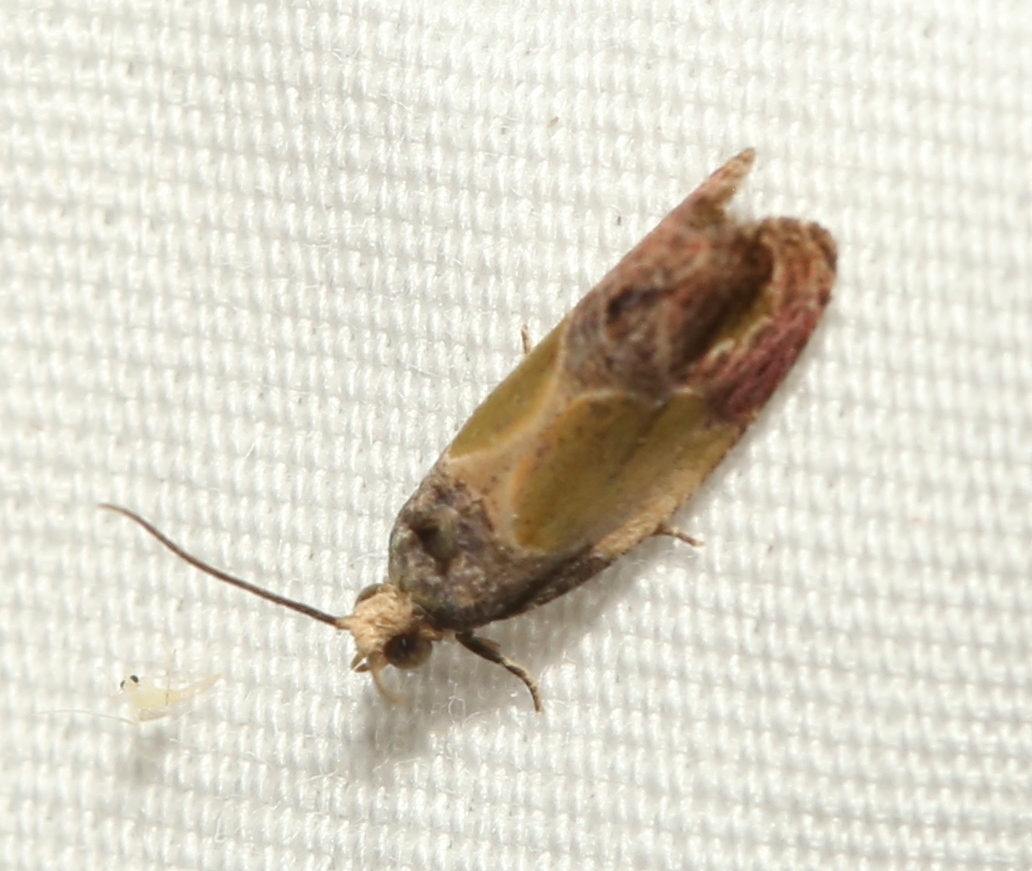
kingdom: Animalia
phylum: Arthropoda
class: Insecta
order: Lepidoptera
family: Tortricidae
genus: Eumarozia
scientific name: Eumarozia malachitana
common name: Sculptured moth
